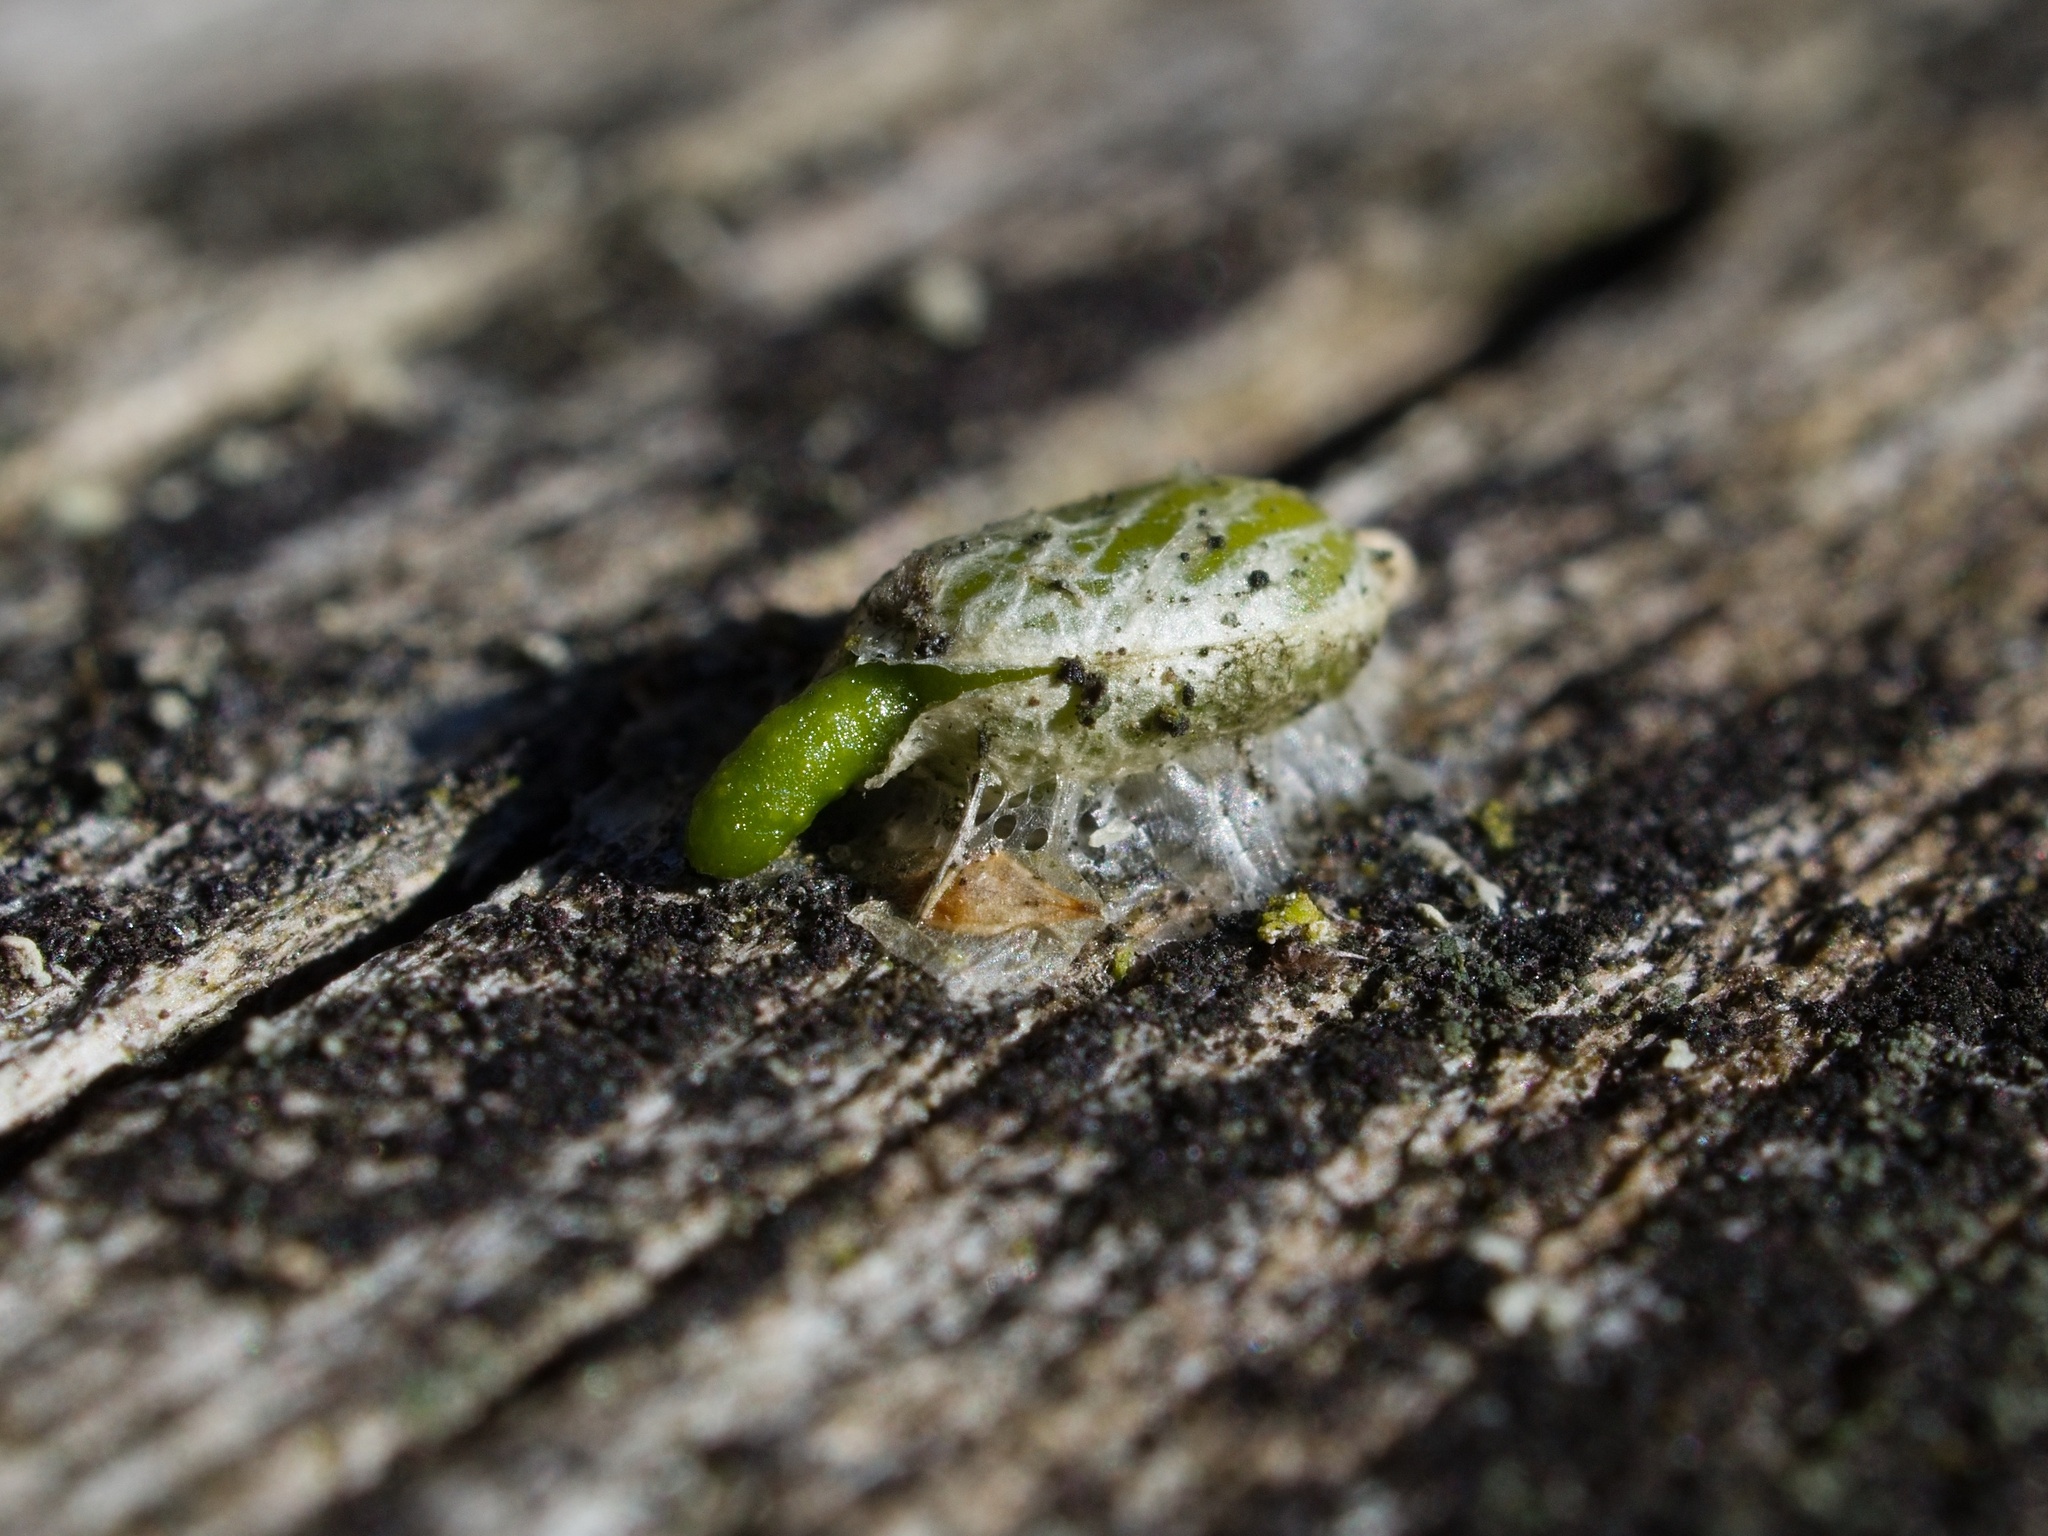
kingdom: Plantae
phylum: Tracheophyta
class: Magnoliopsida
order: Santalales
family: Viscaceae
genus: Viscum
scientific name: Viscum album
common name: Mistletoe
